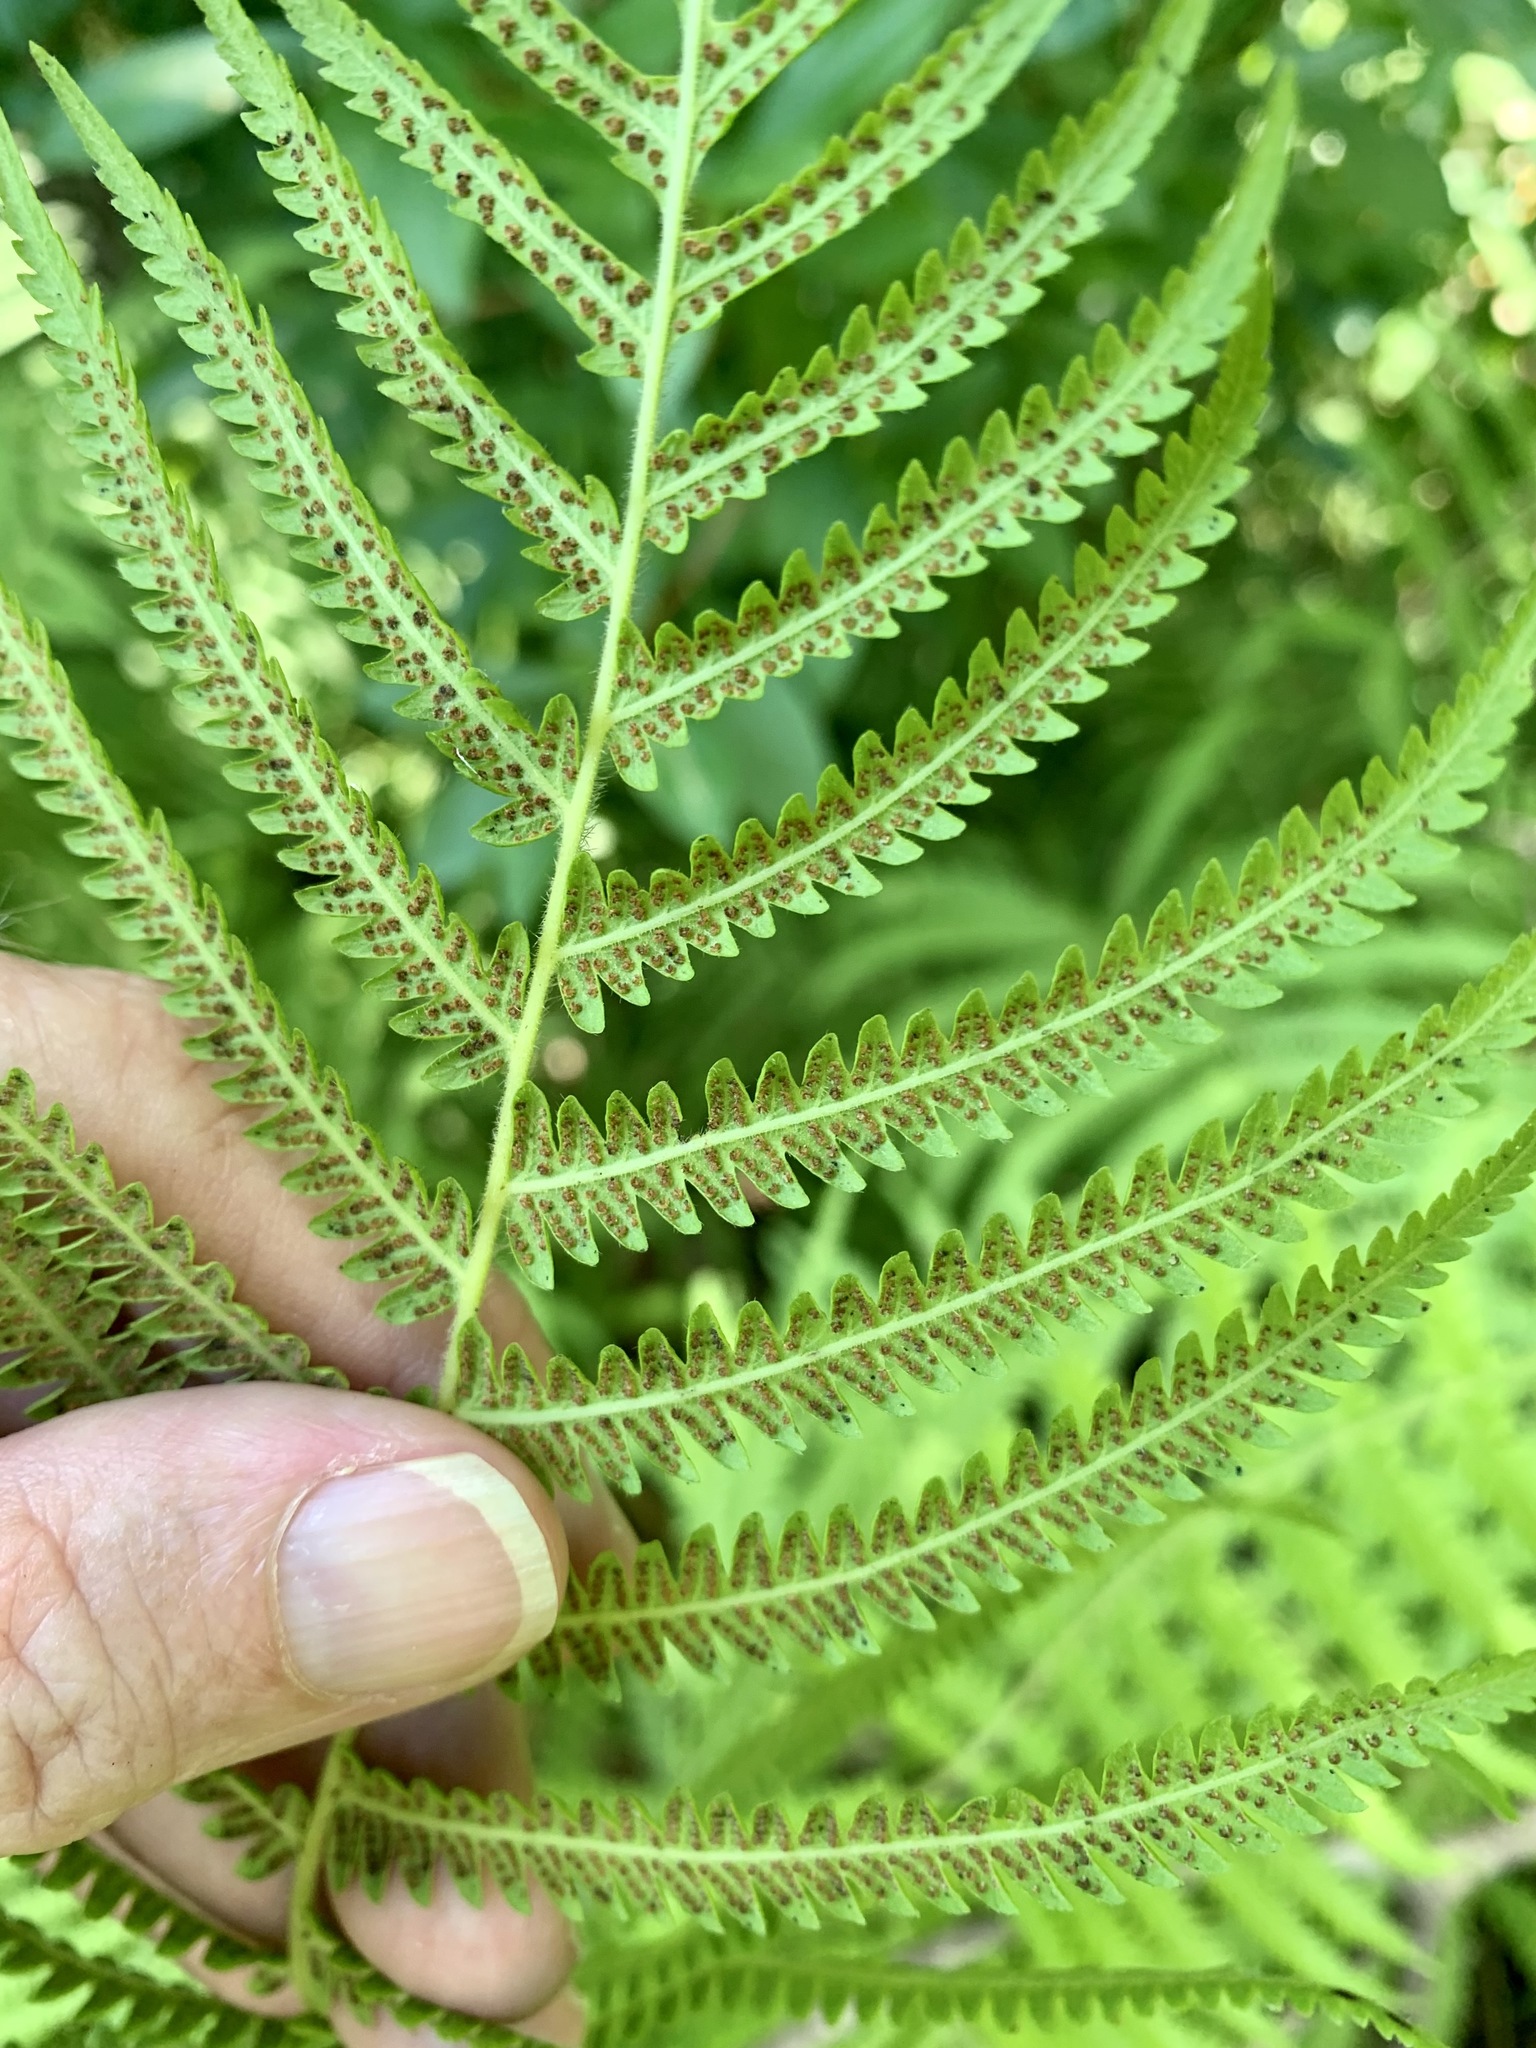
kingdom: Plantae
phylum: Tracheophyta
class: Polypodiopsida
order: Polypodiales
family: Thelypteridaceae
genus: Pelazoneuron
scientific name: Pelazoneuron kunthii
